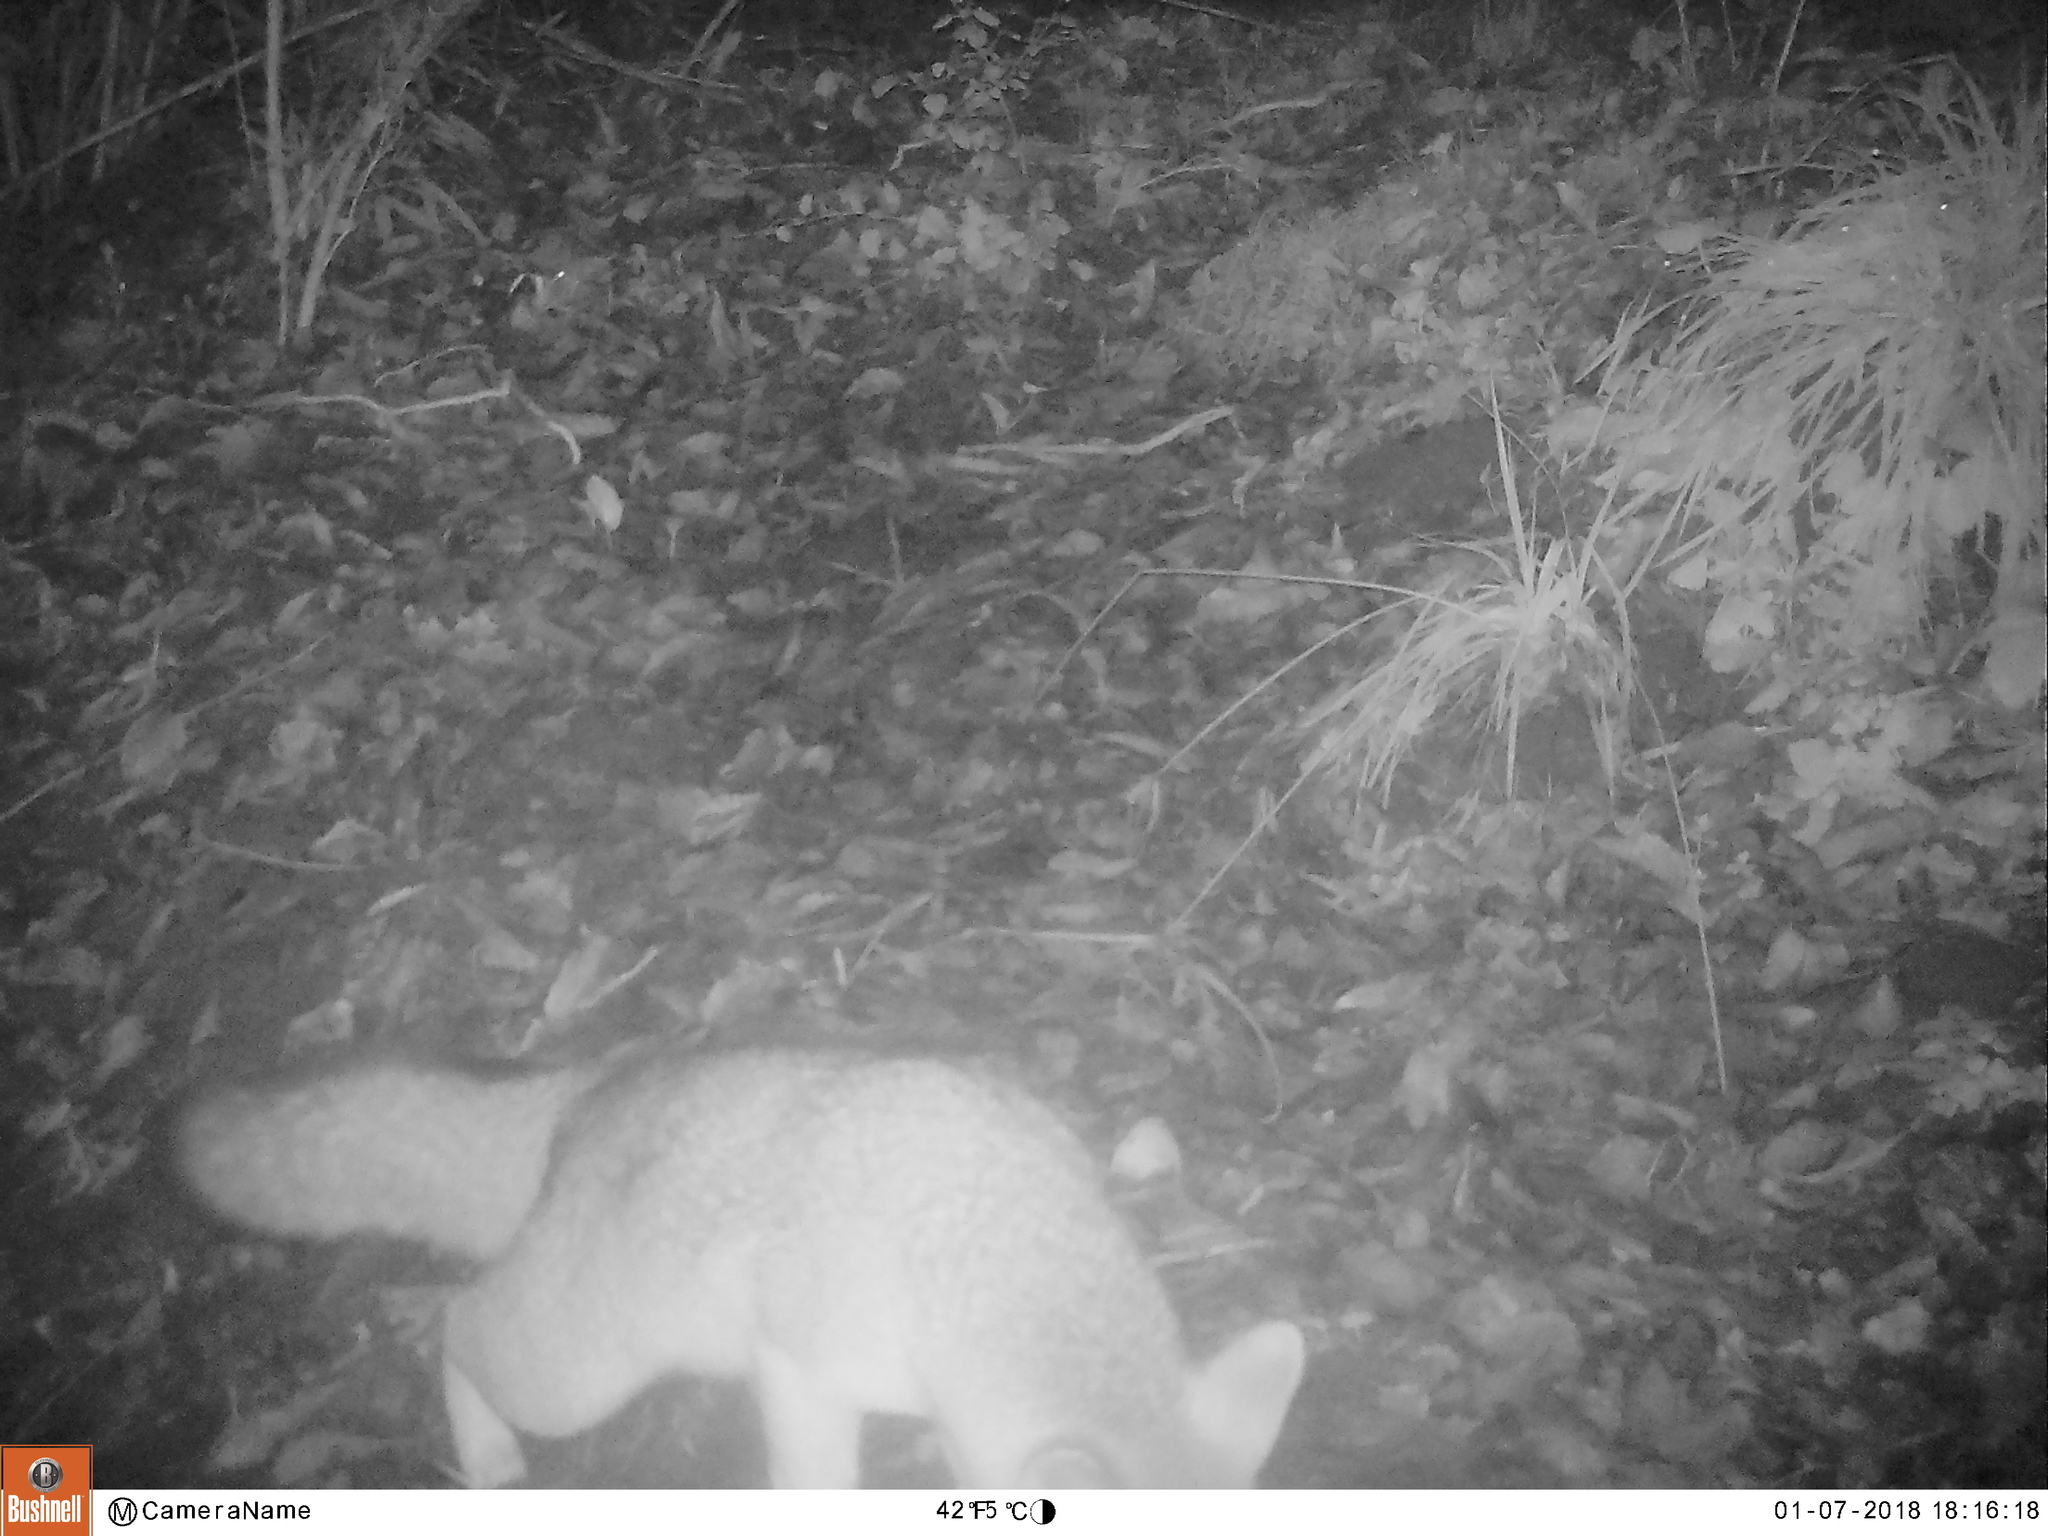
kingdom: Animalia
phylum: Chordata
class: Mammalia
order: Carnivora
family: Canidae
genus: Urocyon
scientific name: Urocyon cinereoargenteus
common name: Gray fox
